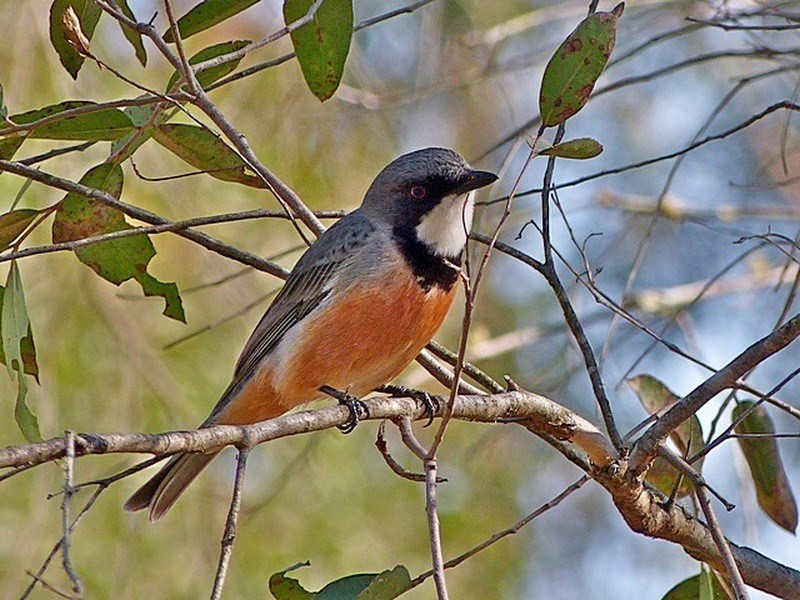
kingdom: Animalia
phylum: Chordata
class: Aves
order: Passeriformes
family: Pachycephalidae
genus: Pachycephala
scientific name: Pachycephala rufiventris
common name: Rufous whistler
